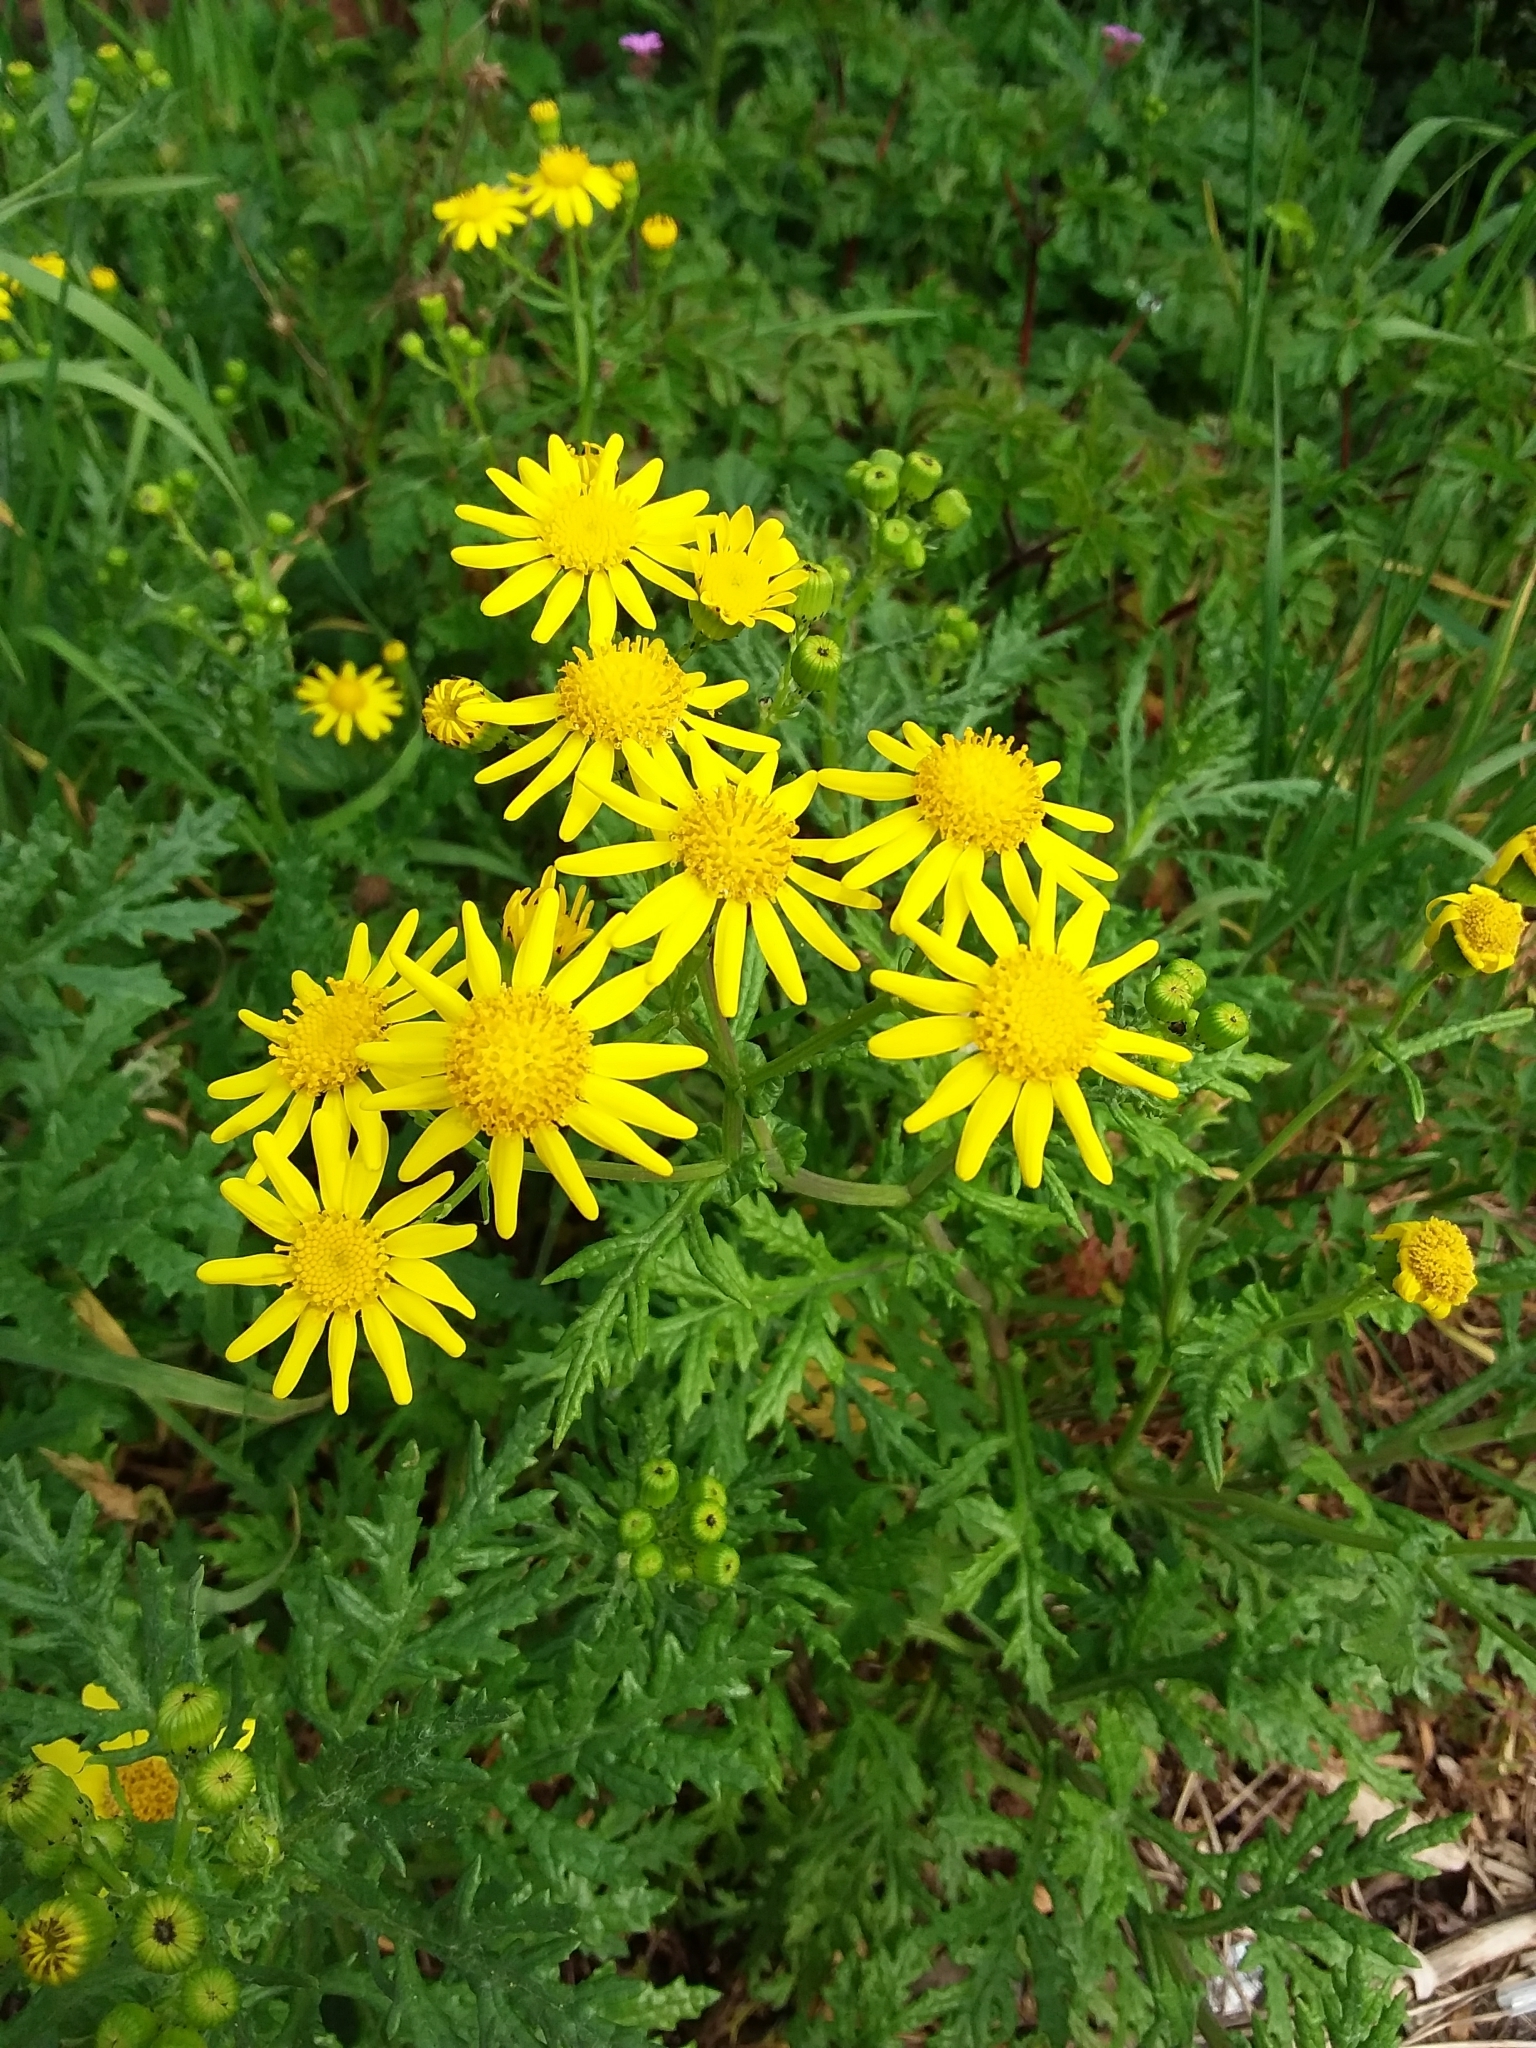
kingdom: Plantae
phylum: Tracheophyta
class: Magnoliopsida
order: Asterales
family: Asteraceae
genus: Senecio
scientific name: Senecio squalidus
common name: Oxford ragwort
